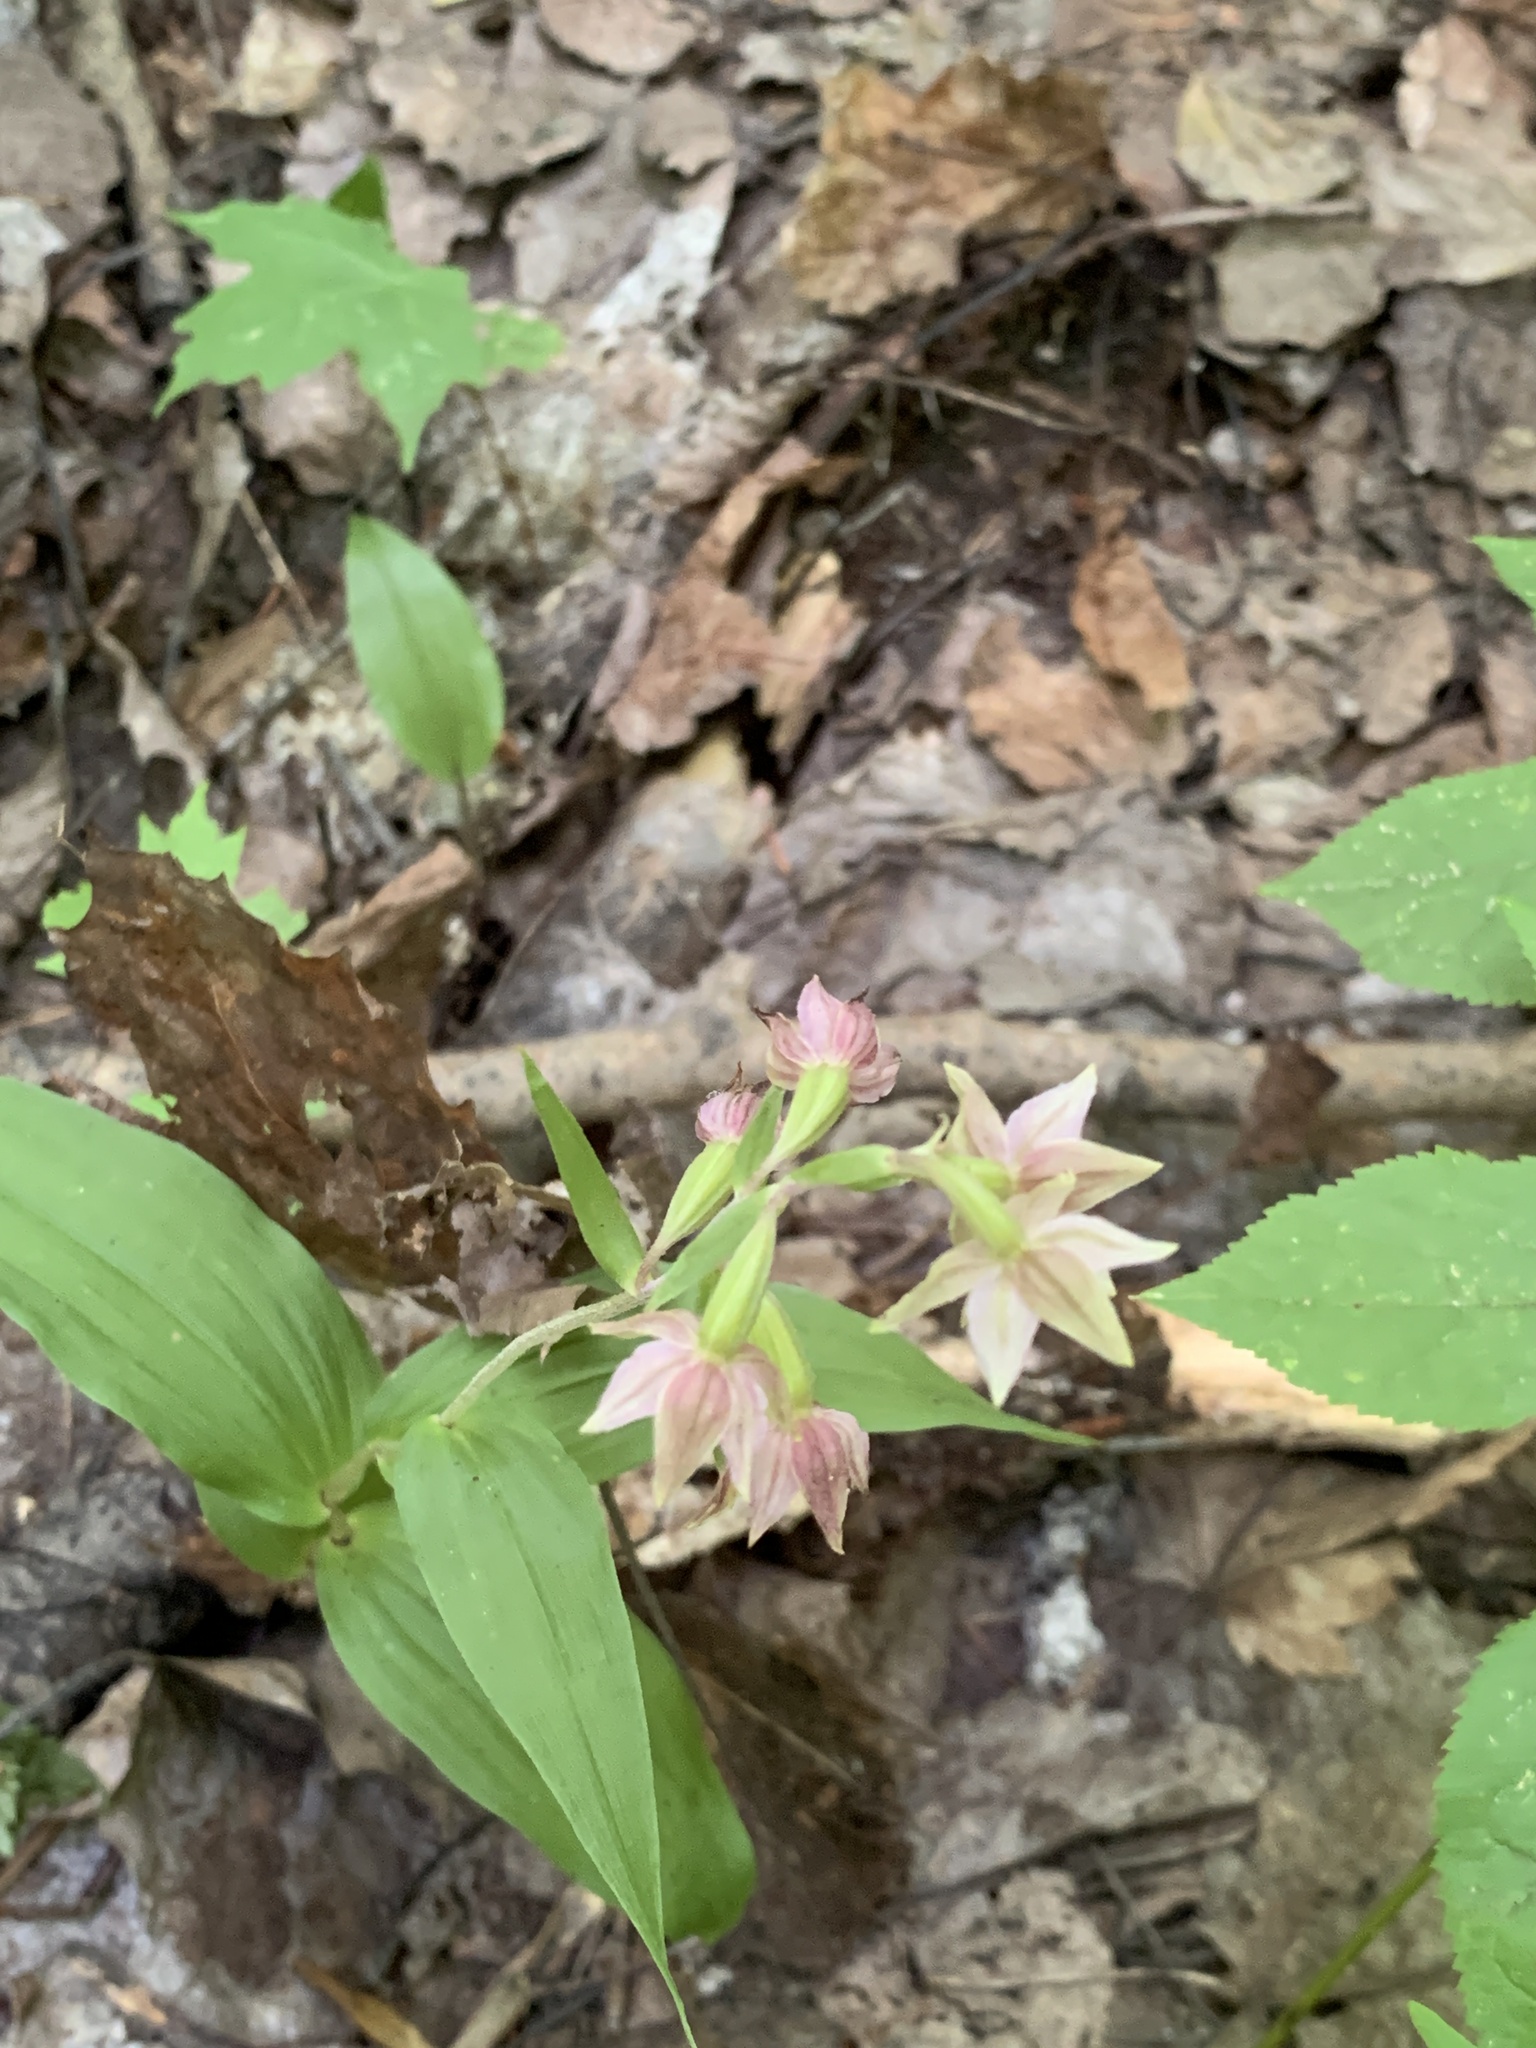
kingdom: Plantae
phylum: Tracheophyta
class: Liliopsida
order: Asparagales
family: Orchidaceae
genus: Epipactis
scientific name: Epipactis helleborine
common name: Broad-leaved helleborine
